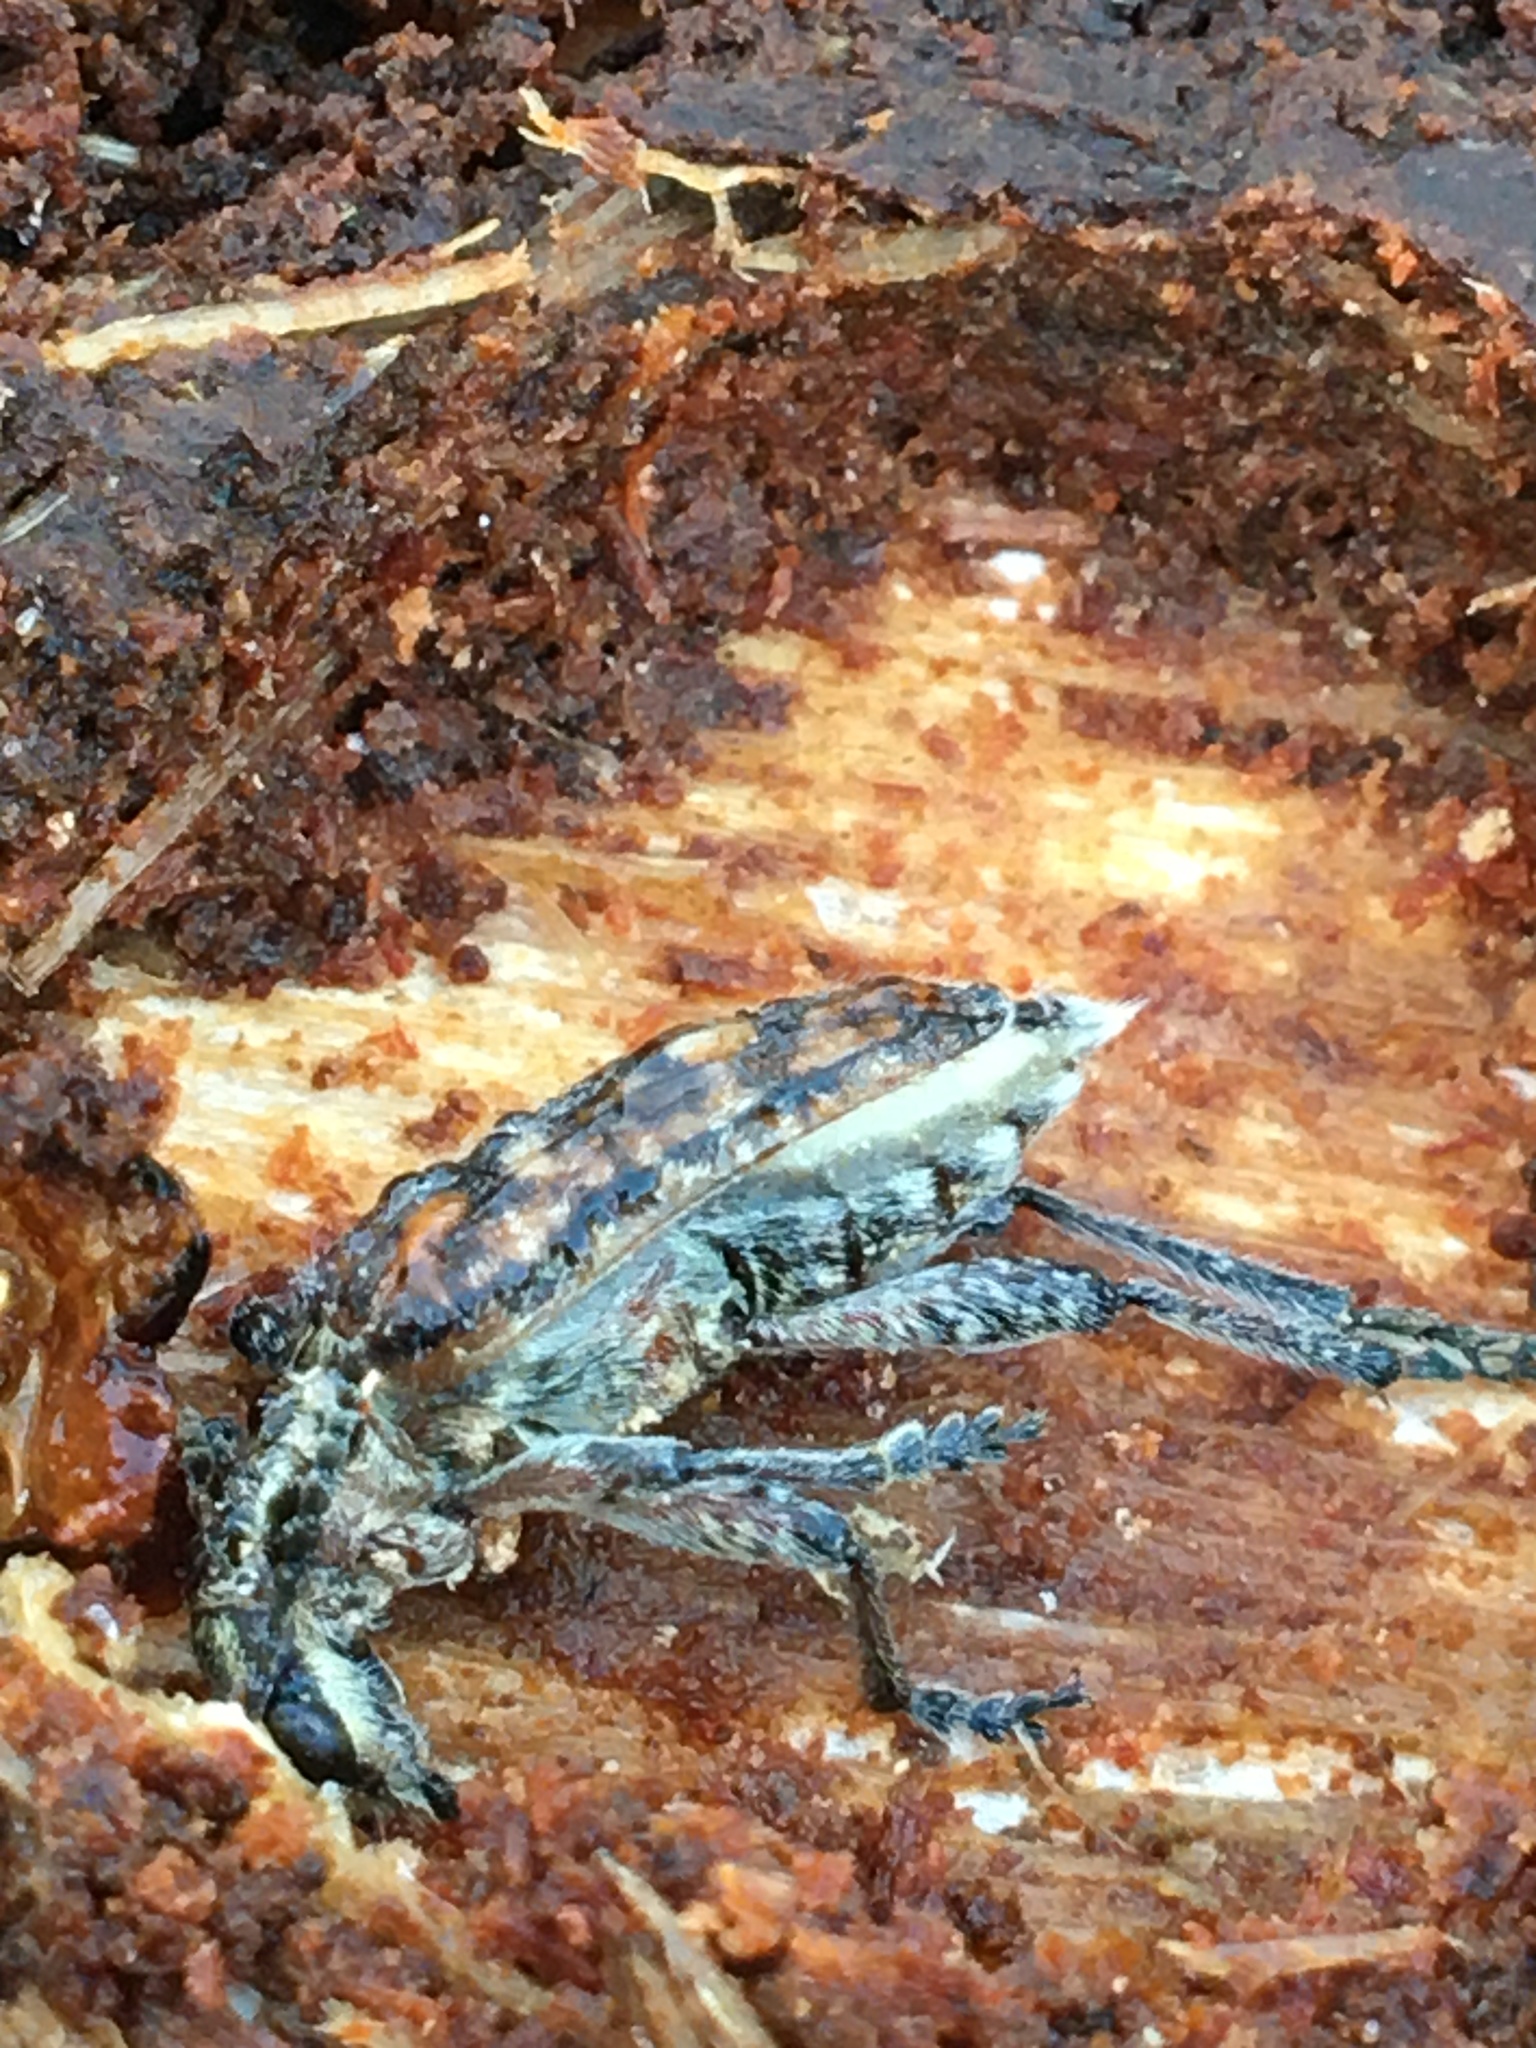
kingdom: Animalia
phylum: Arthropoda
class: Insecta
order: Coleoptera
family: Cerambycidae
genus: Rhagium
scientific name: Rhagium inquisitor
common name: Ribbed pine borer
